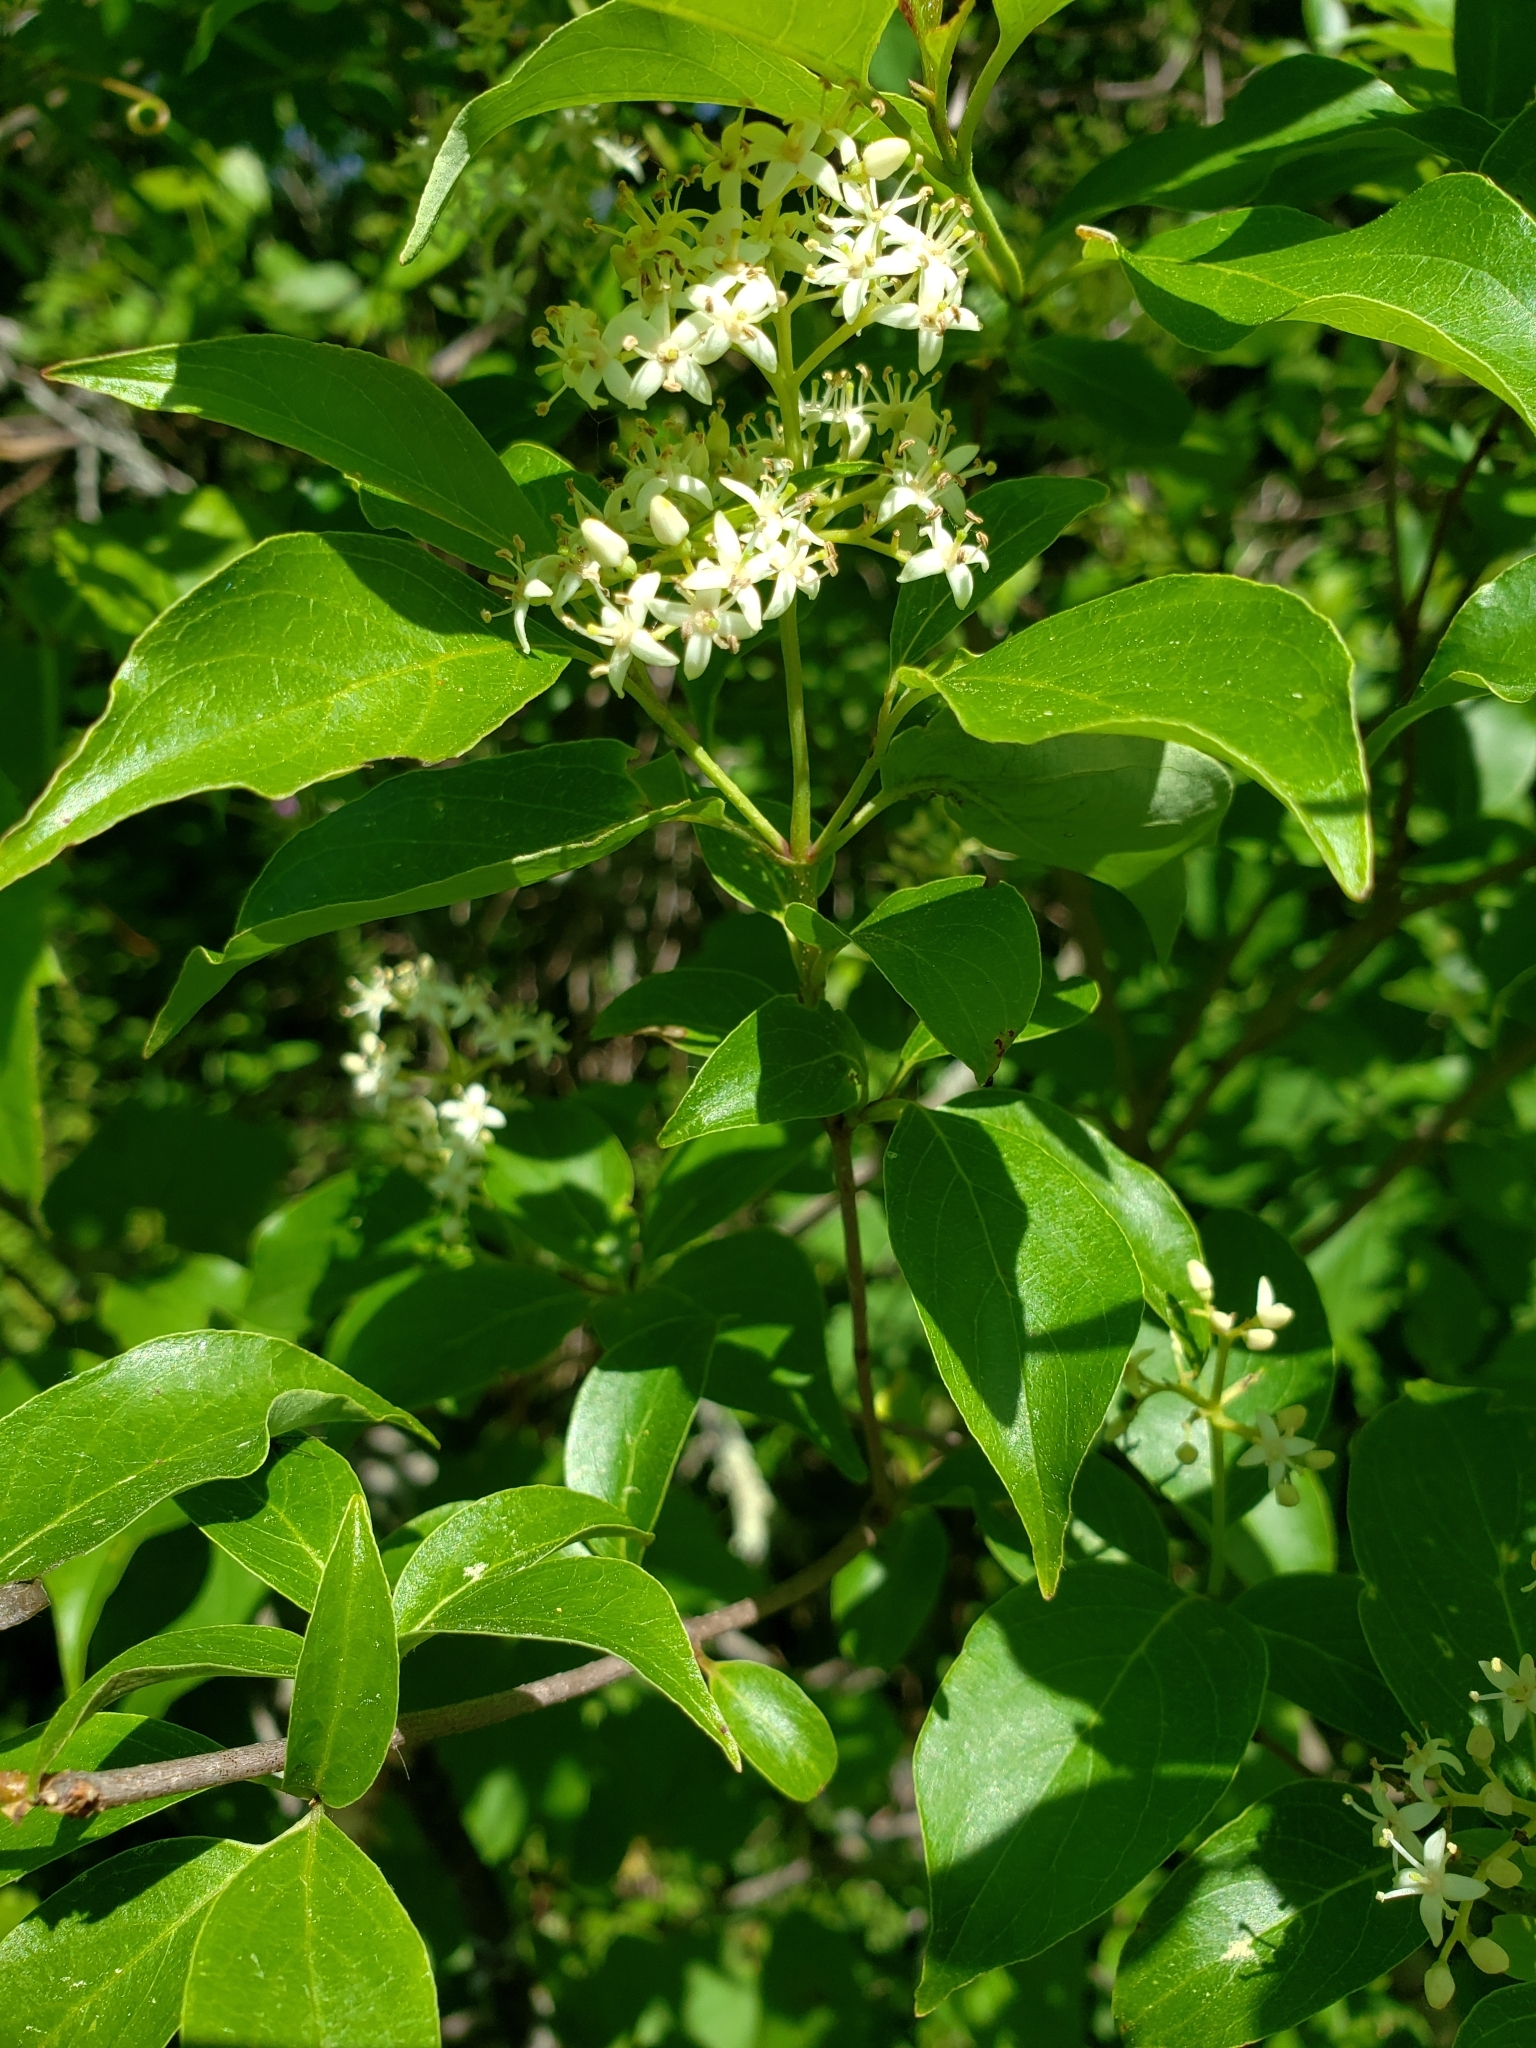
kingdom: Plantae
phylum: Tracheophyta
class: Magnoliopsida
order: Cornales
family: Cornaceae
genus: Cornus
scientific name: Cornus racemosa
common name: Panicled dogwood
